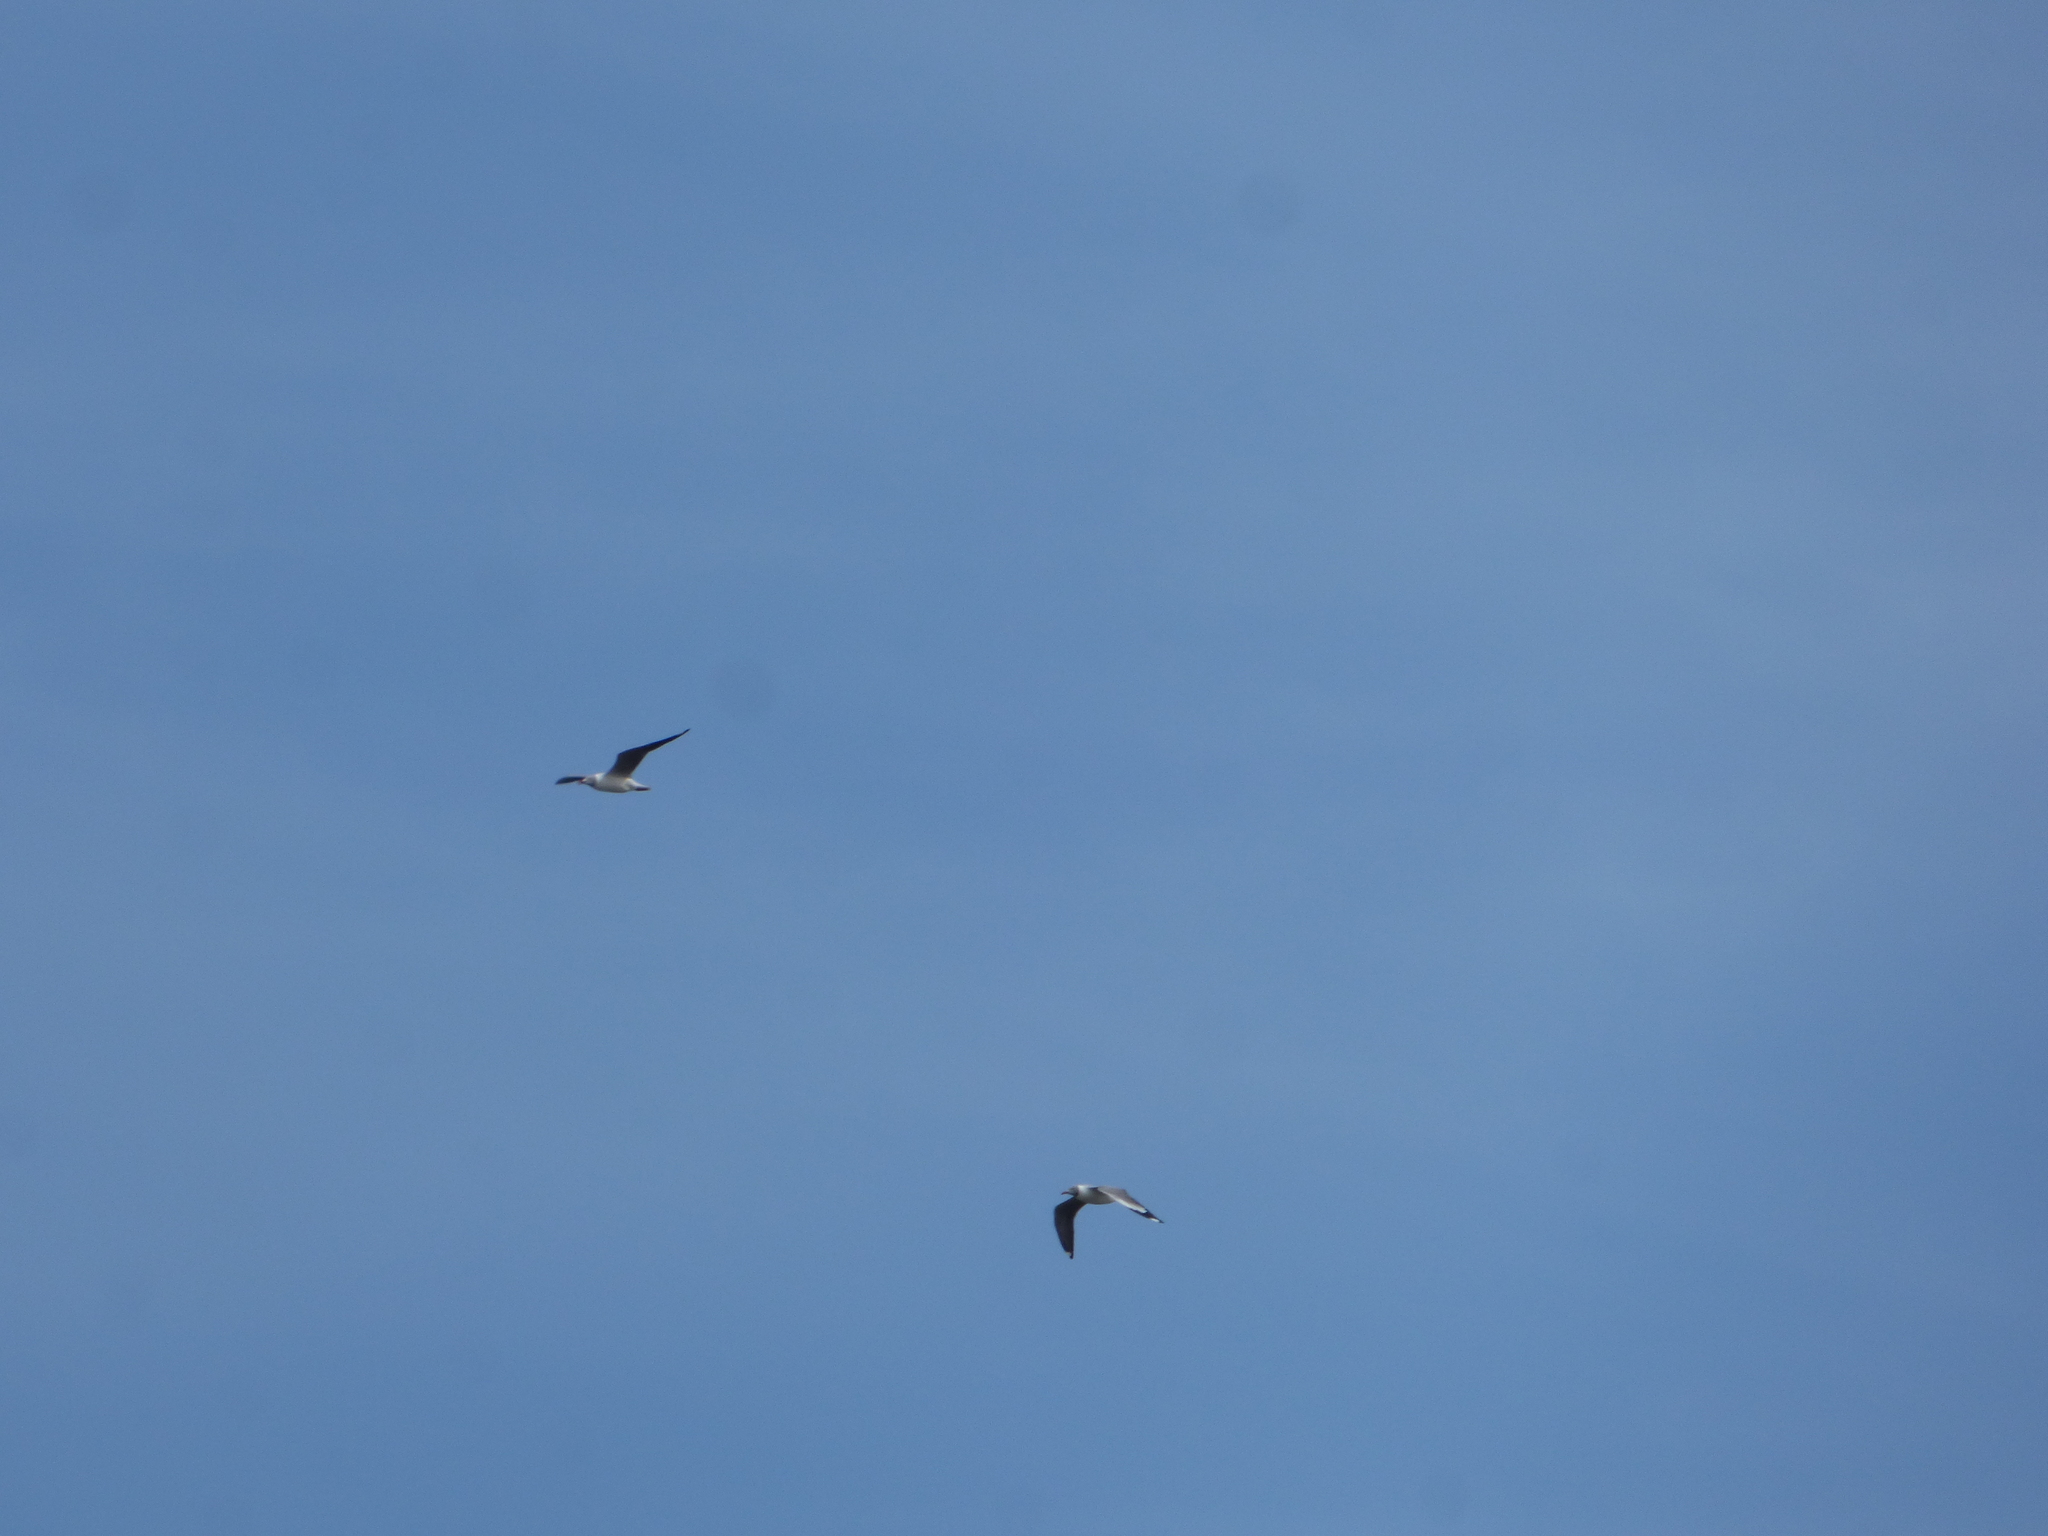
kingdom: Animalia
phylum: Chordata
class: Aves
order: Charadriiformes
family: Laridae
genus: Chroicocephalus
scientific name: Chroicocephalus cirrocephalus
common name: Grey-headed gull
